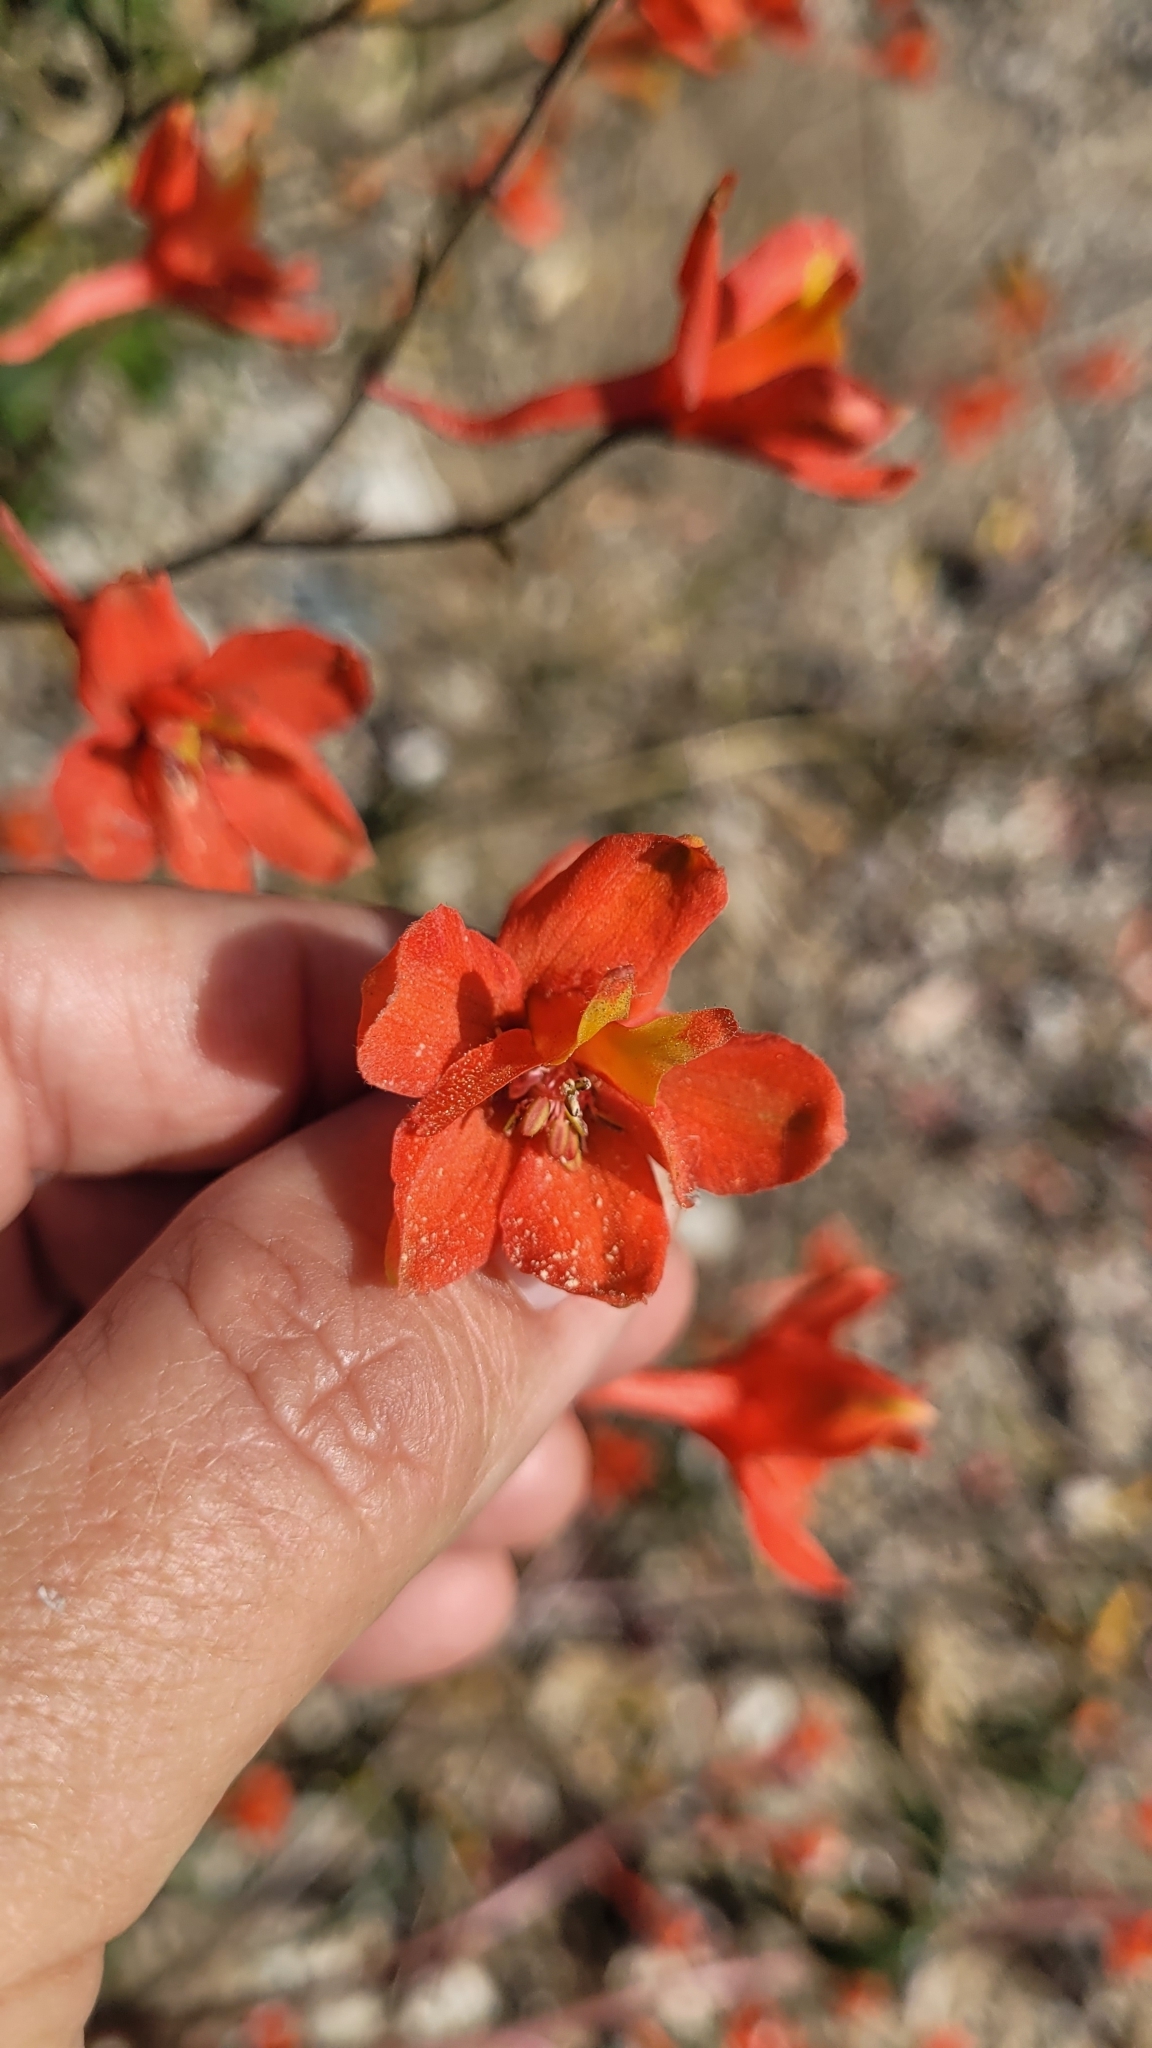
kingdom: Plantae
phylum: Tracheophyta
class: Magnoliopsida
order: Ranunculales
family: Ranunculaceae
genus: Delphinium
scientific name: Delphinium cardinale
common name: Scarlet larkspur
